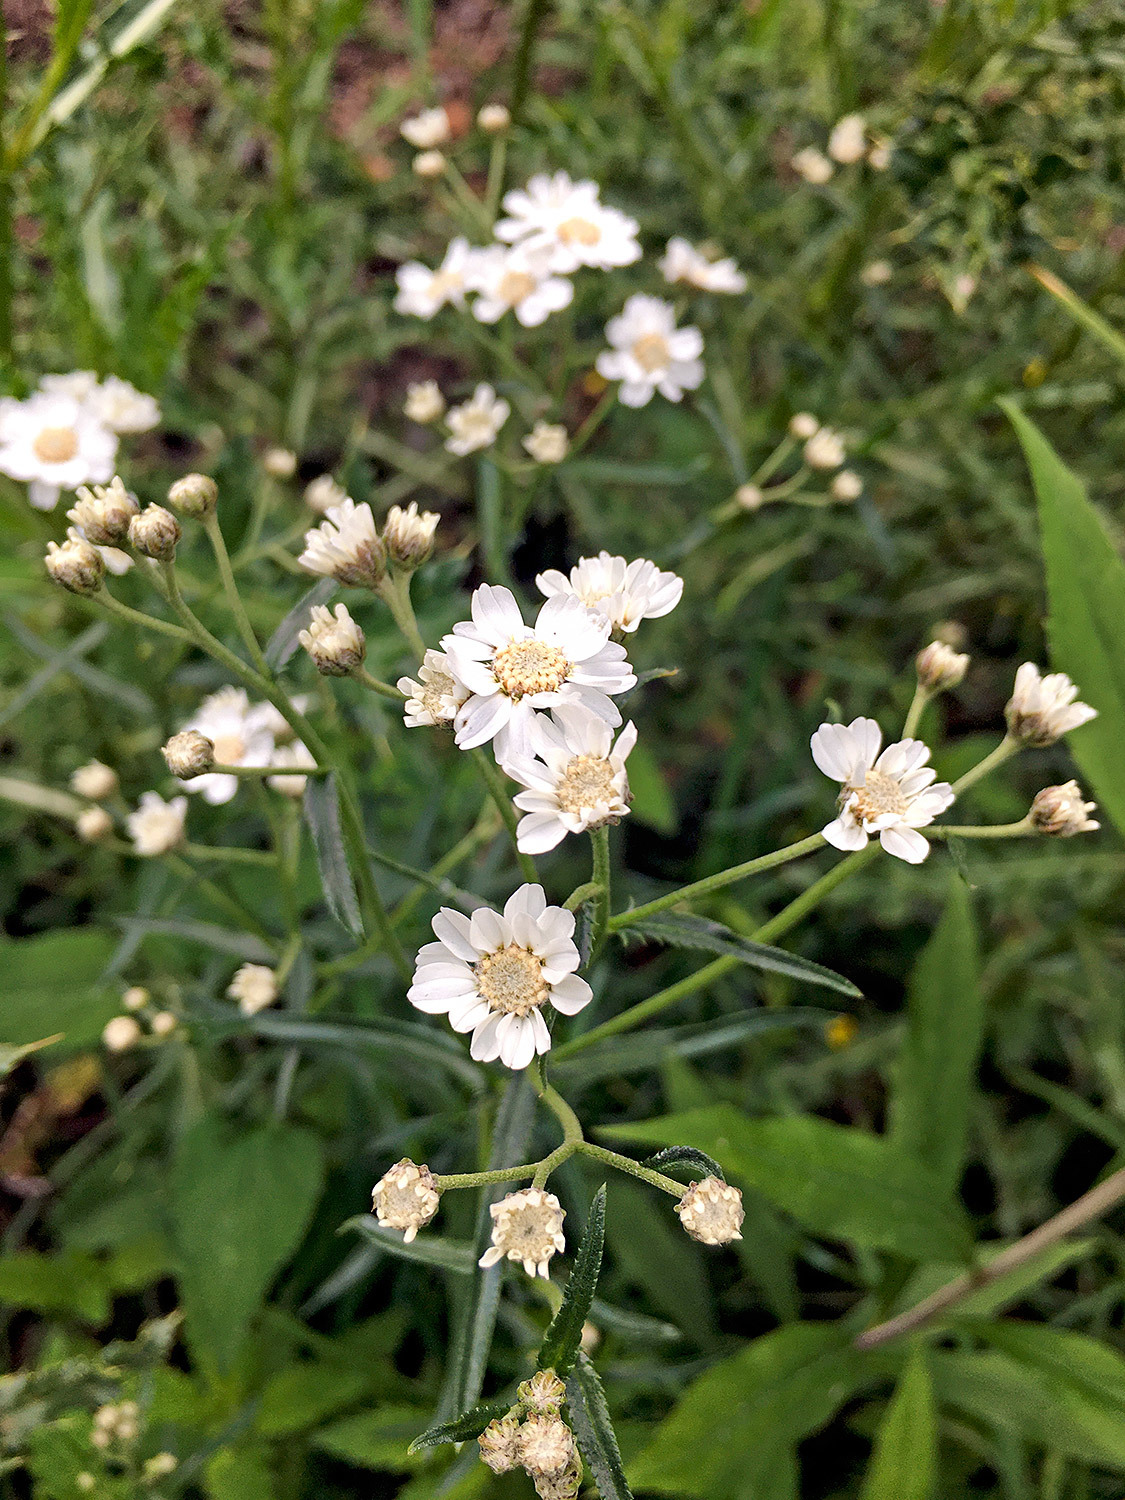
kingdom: Plantae
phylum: Tracheophyta
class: Magnoliopsida
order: Asterales
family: Asteraceae
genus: Achillea
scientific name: Achillea ptarmica
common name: Sneezeweed
